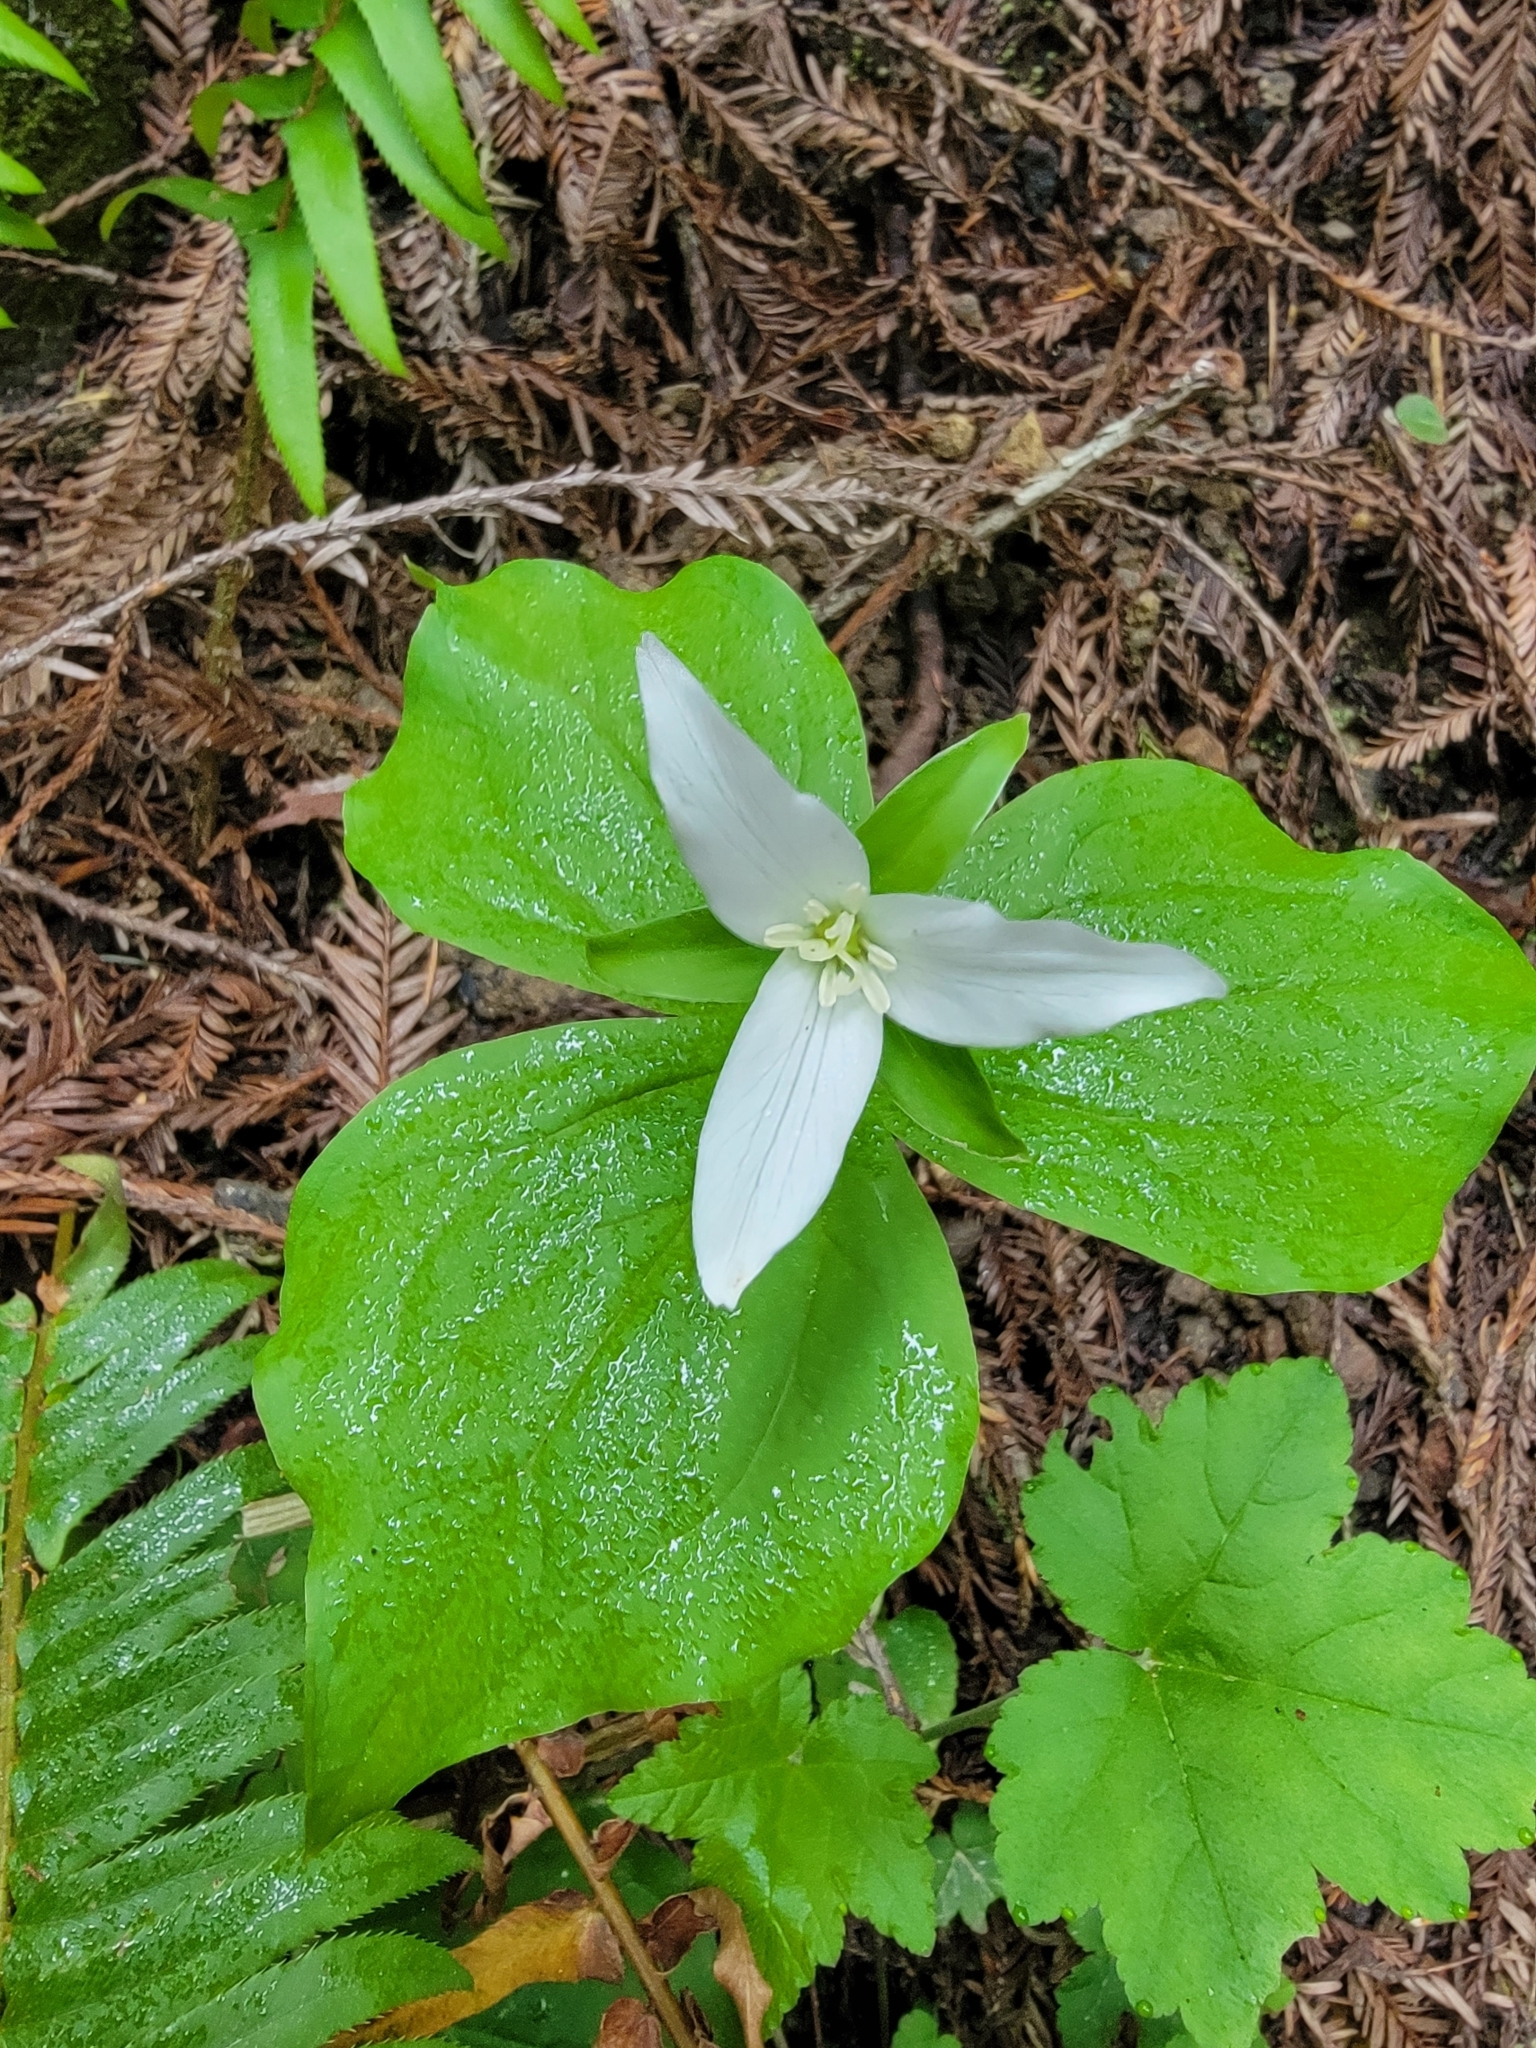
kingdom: Plantae
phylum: Tracheophyta
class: Liliopsida
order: Liliales
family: Melanthiaceae
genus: Trillium
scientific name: Trillium ovatum
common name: Pacific trillium
